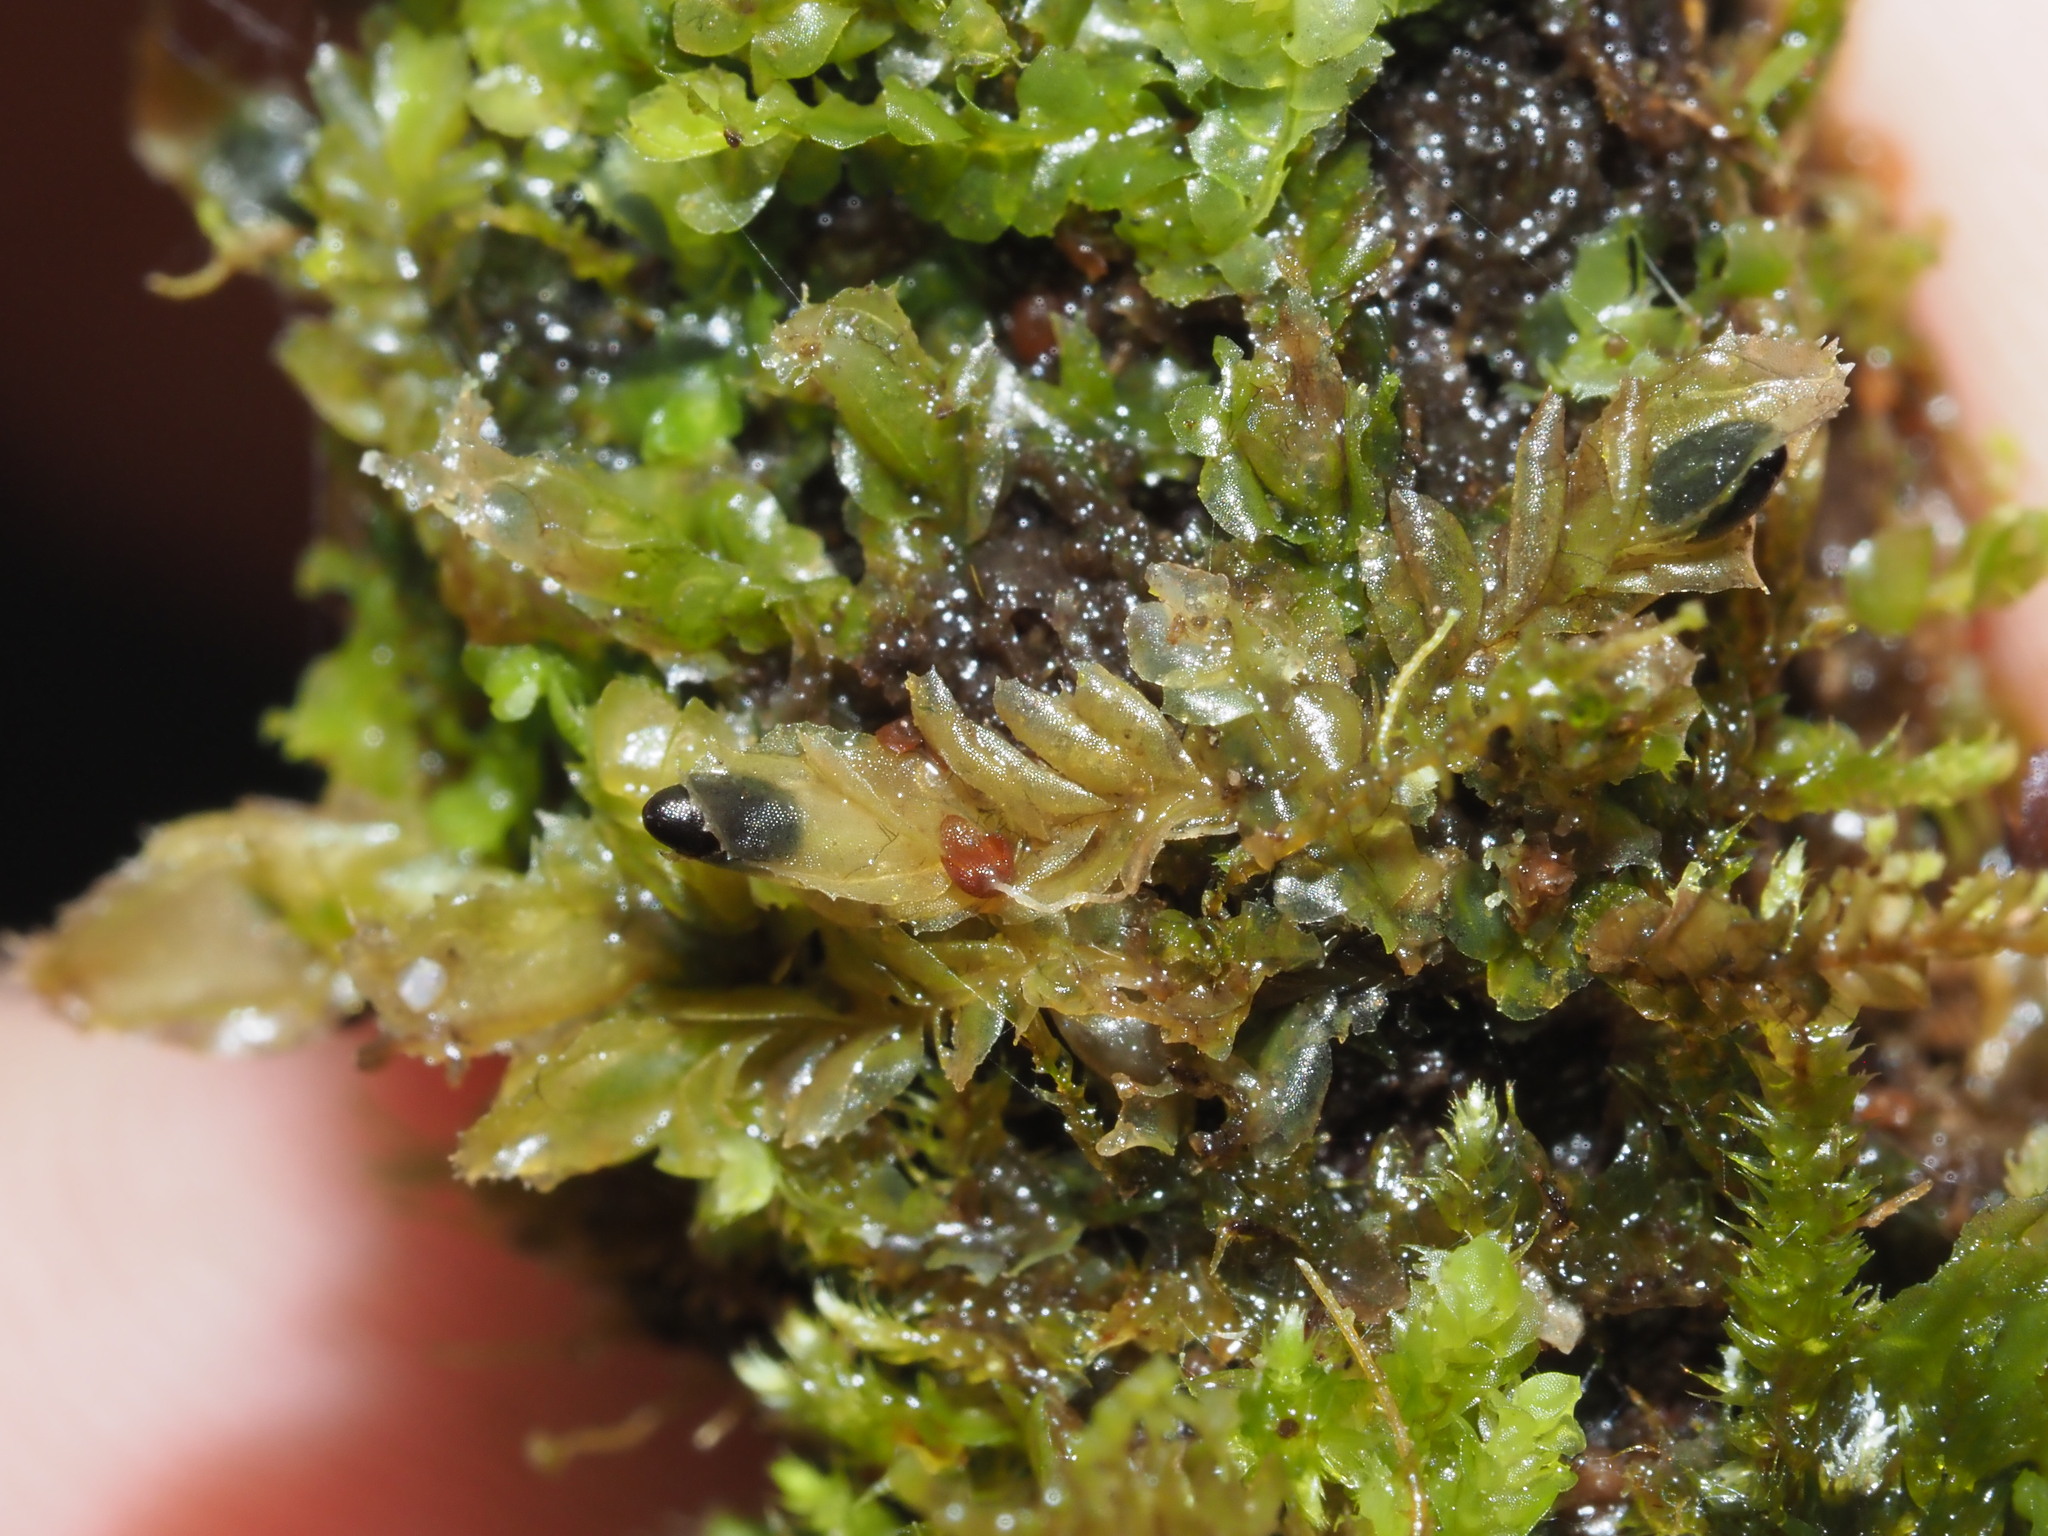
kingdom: Plantae
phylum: Marchantiophyta
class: Jungermanniopsida
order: Jungermanniales
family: Lophocoleaceae
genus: Cryptolophocolea
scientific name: Cryptolophocolea ciliolata
